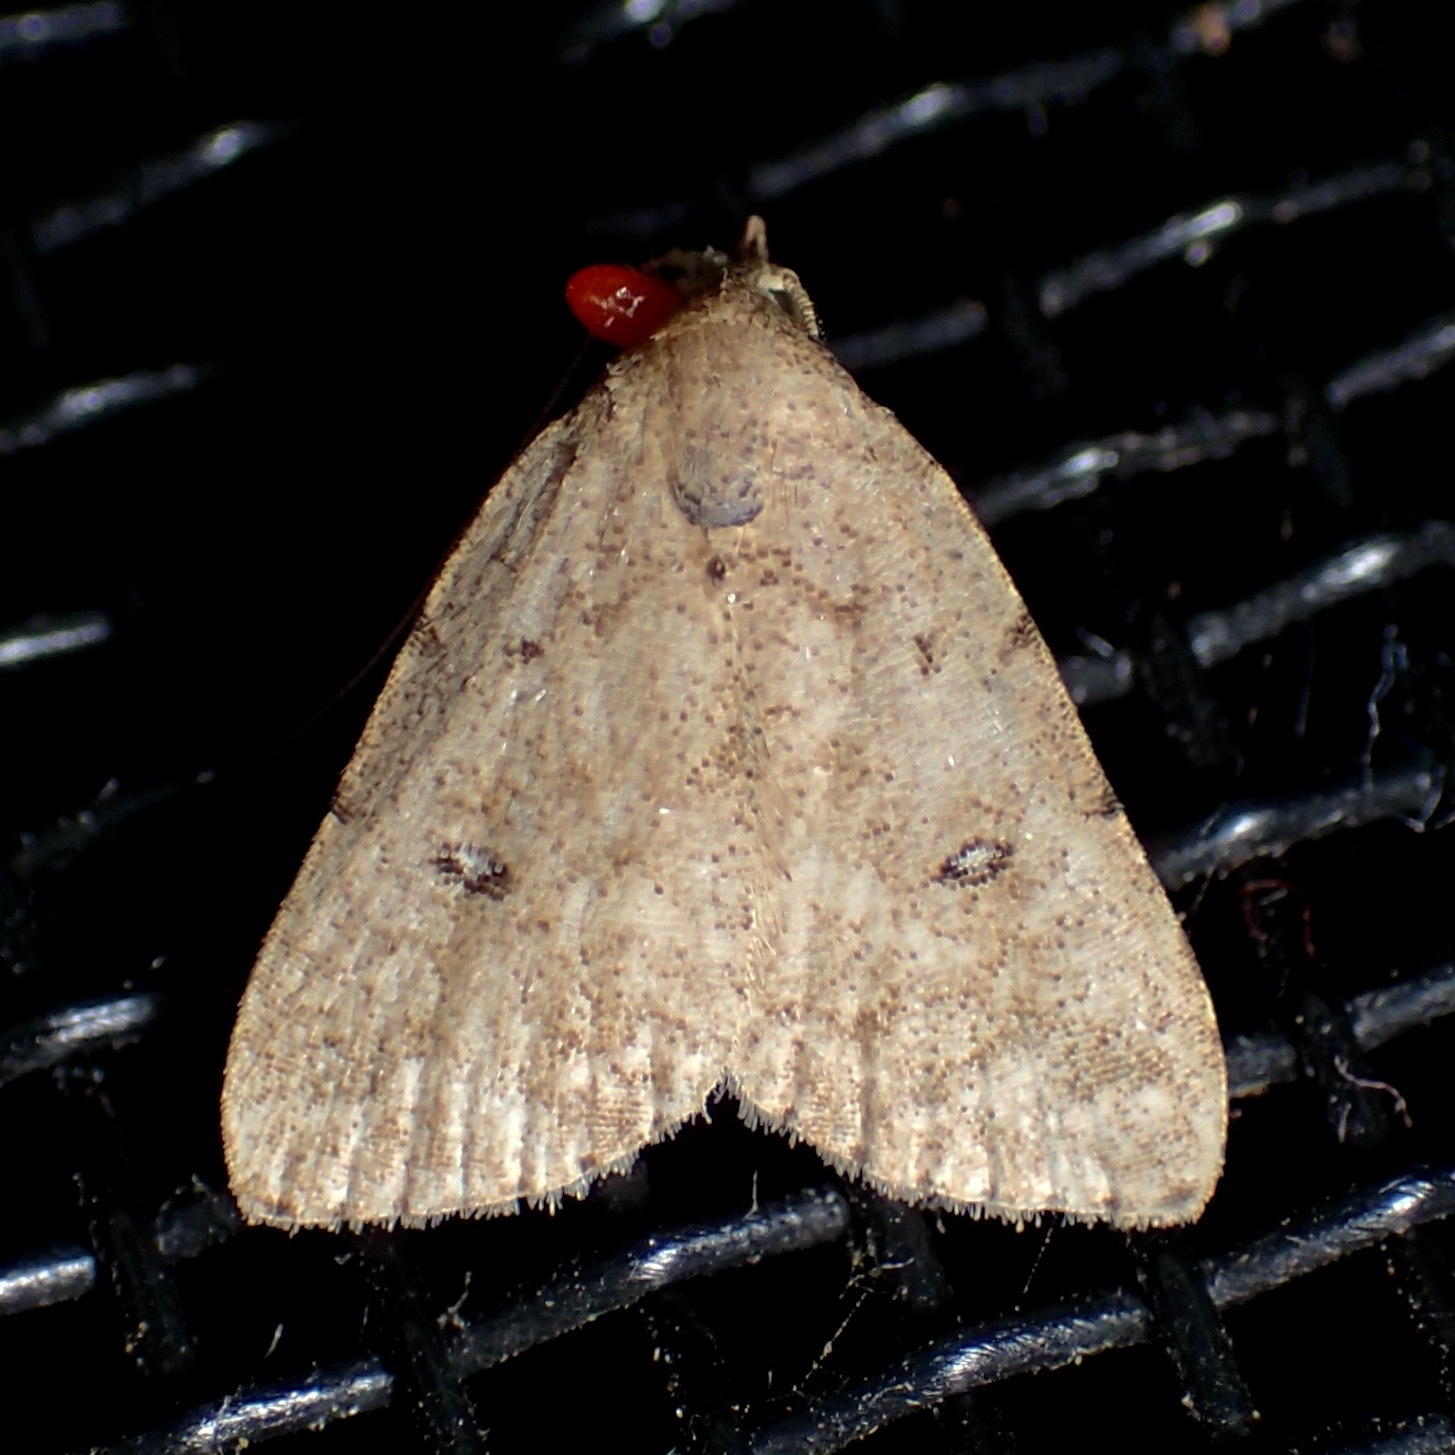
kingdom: Animalia
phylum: Arthropoda
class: Insecta
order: Lepidoptera
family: Erebidae
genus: Tolpiodes
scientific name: Tolpiodes oligolasia
